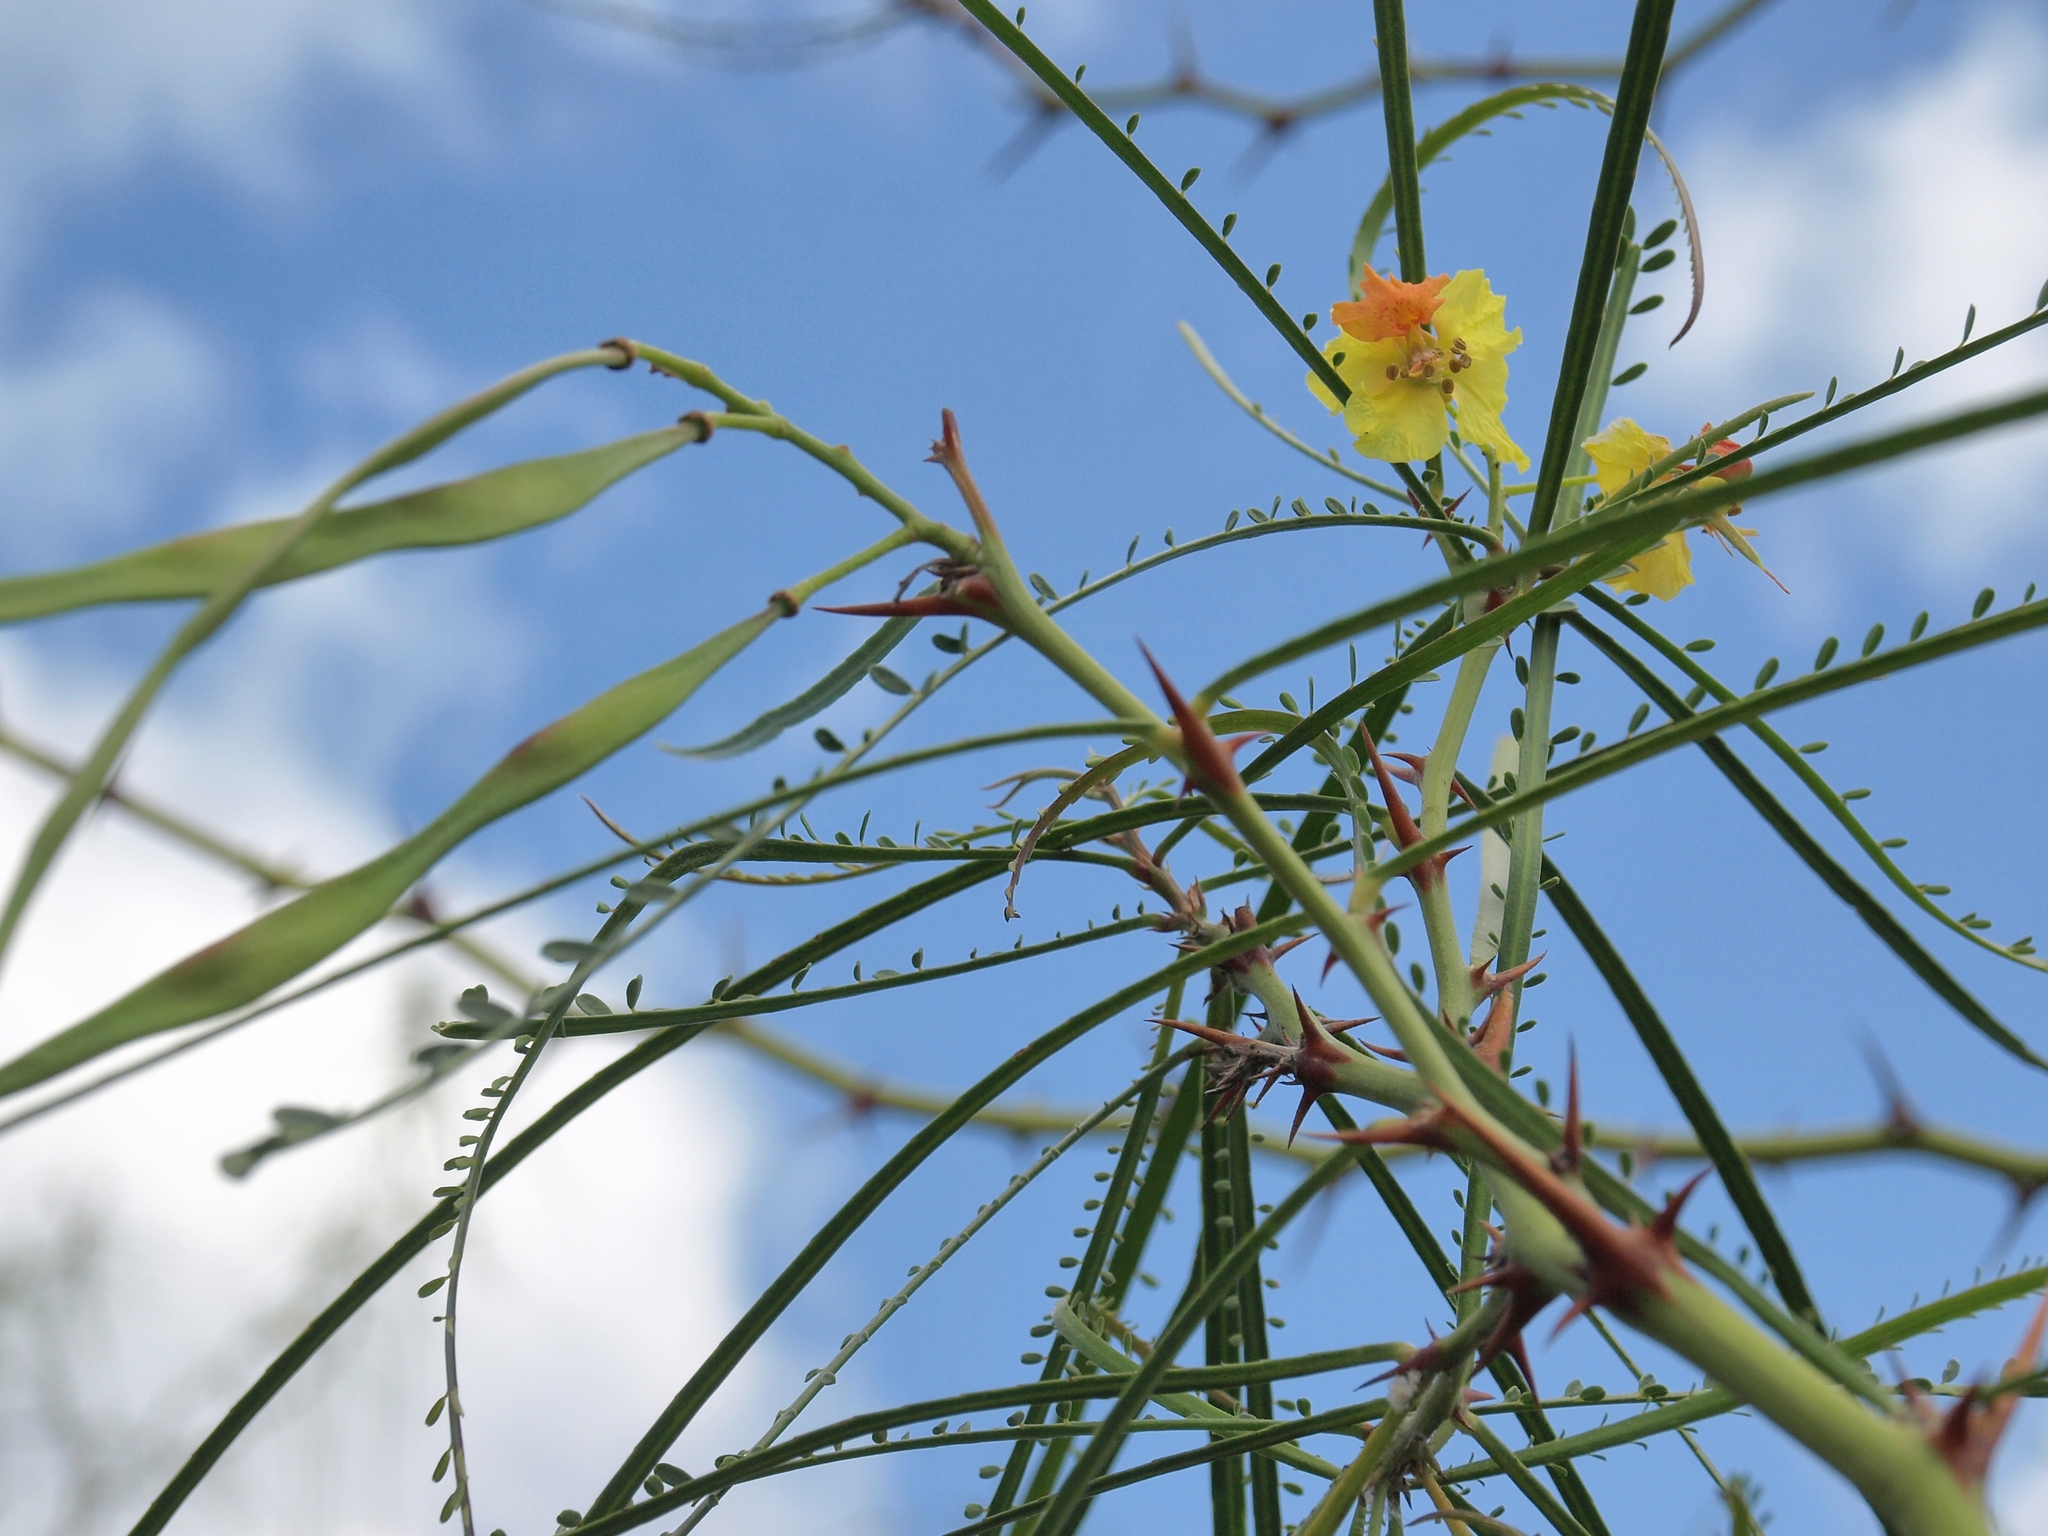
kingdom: Plantae
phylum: Tracheophyta
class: Magnoliopsida
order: Fabales
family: Fabaceae
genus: Parkinsonia
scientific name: Parkinsonia aculeata
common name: Jerusalem thorn
